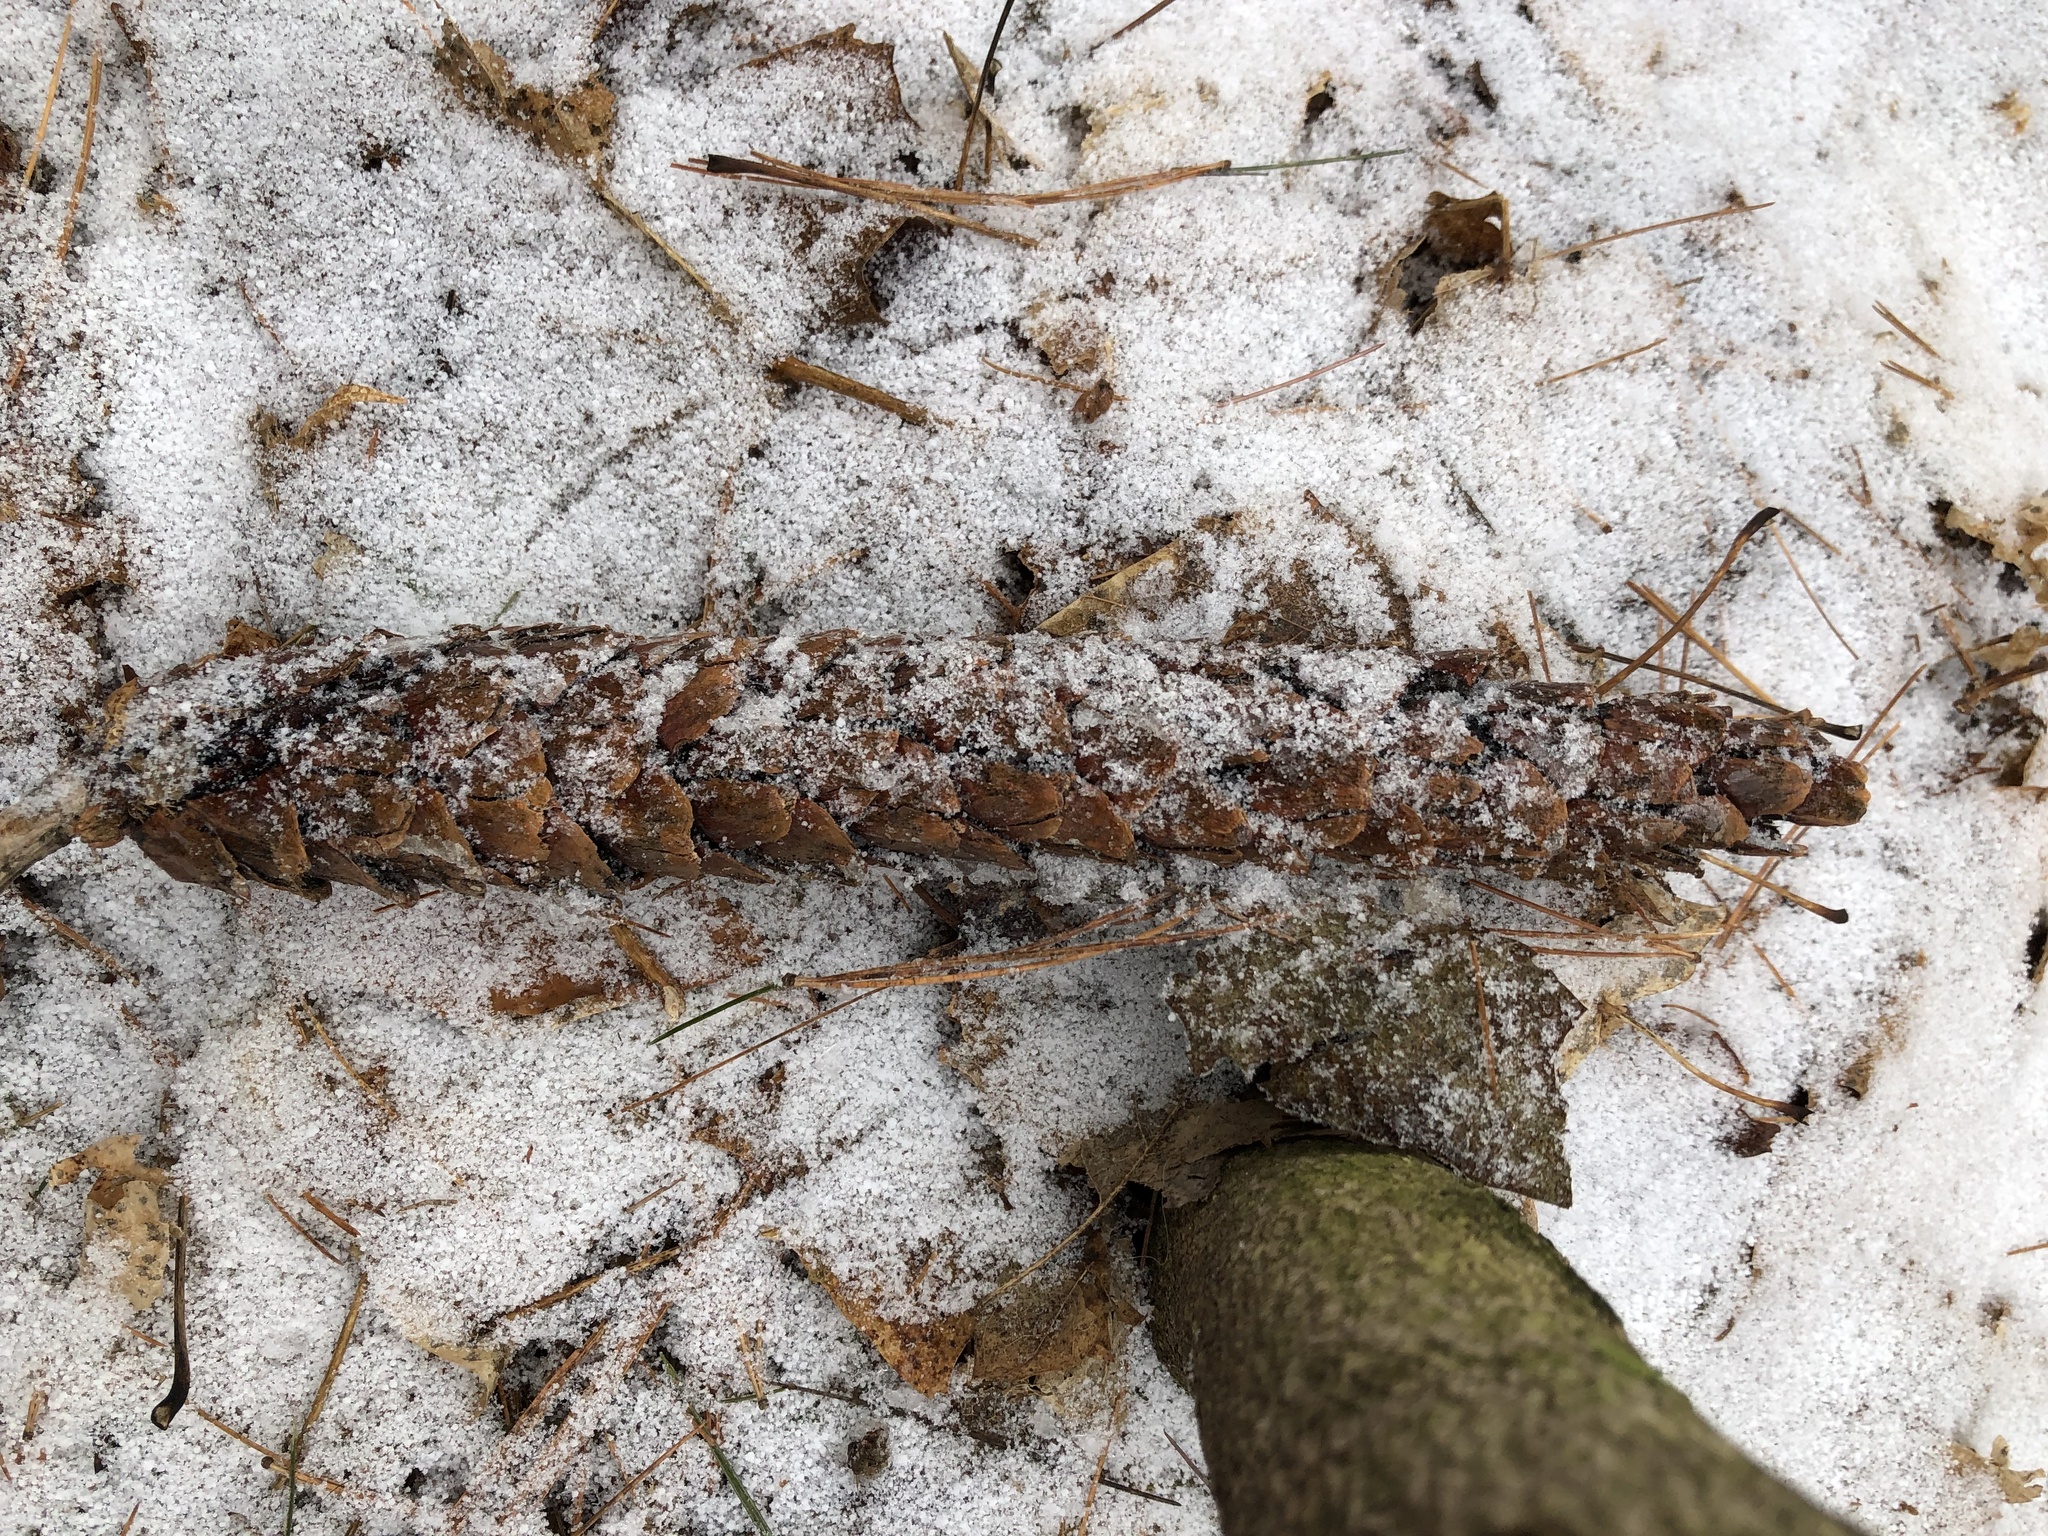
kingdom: Plantae
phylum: Tracheophyta
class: Pinopsida
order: Pinales
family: Pinaceae
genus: Pinus
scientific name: Pinus strobus
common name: Weymouth pine
